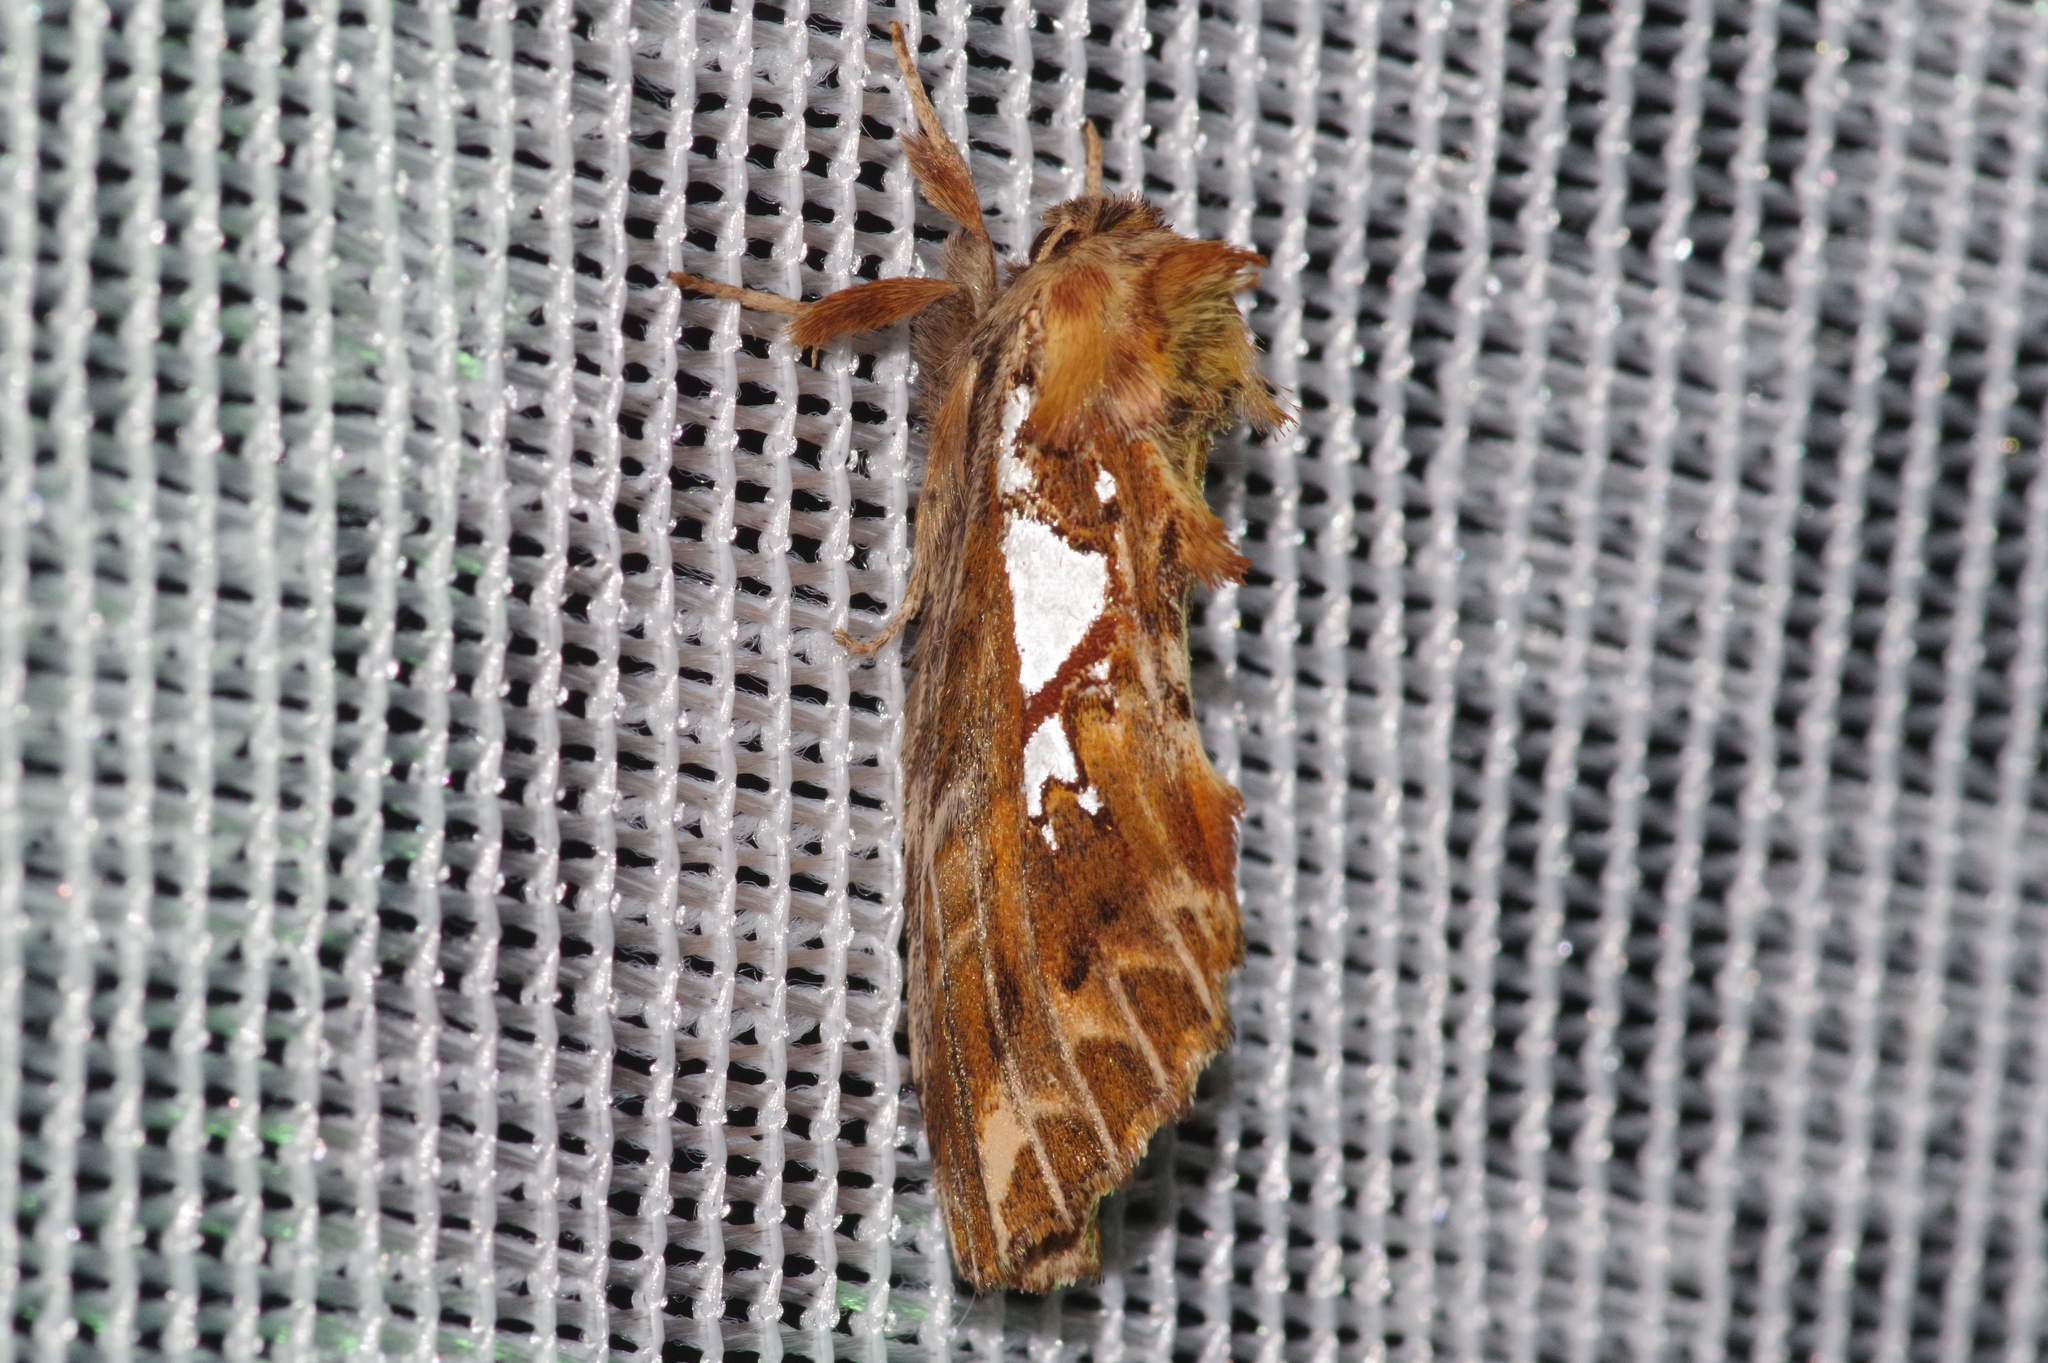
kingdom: Animalia
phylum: Arthropoda
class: Insecta
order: Lepidoptera
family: Notodontidae
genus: Spatalia
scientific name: Spatalia doerriesi
